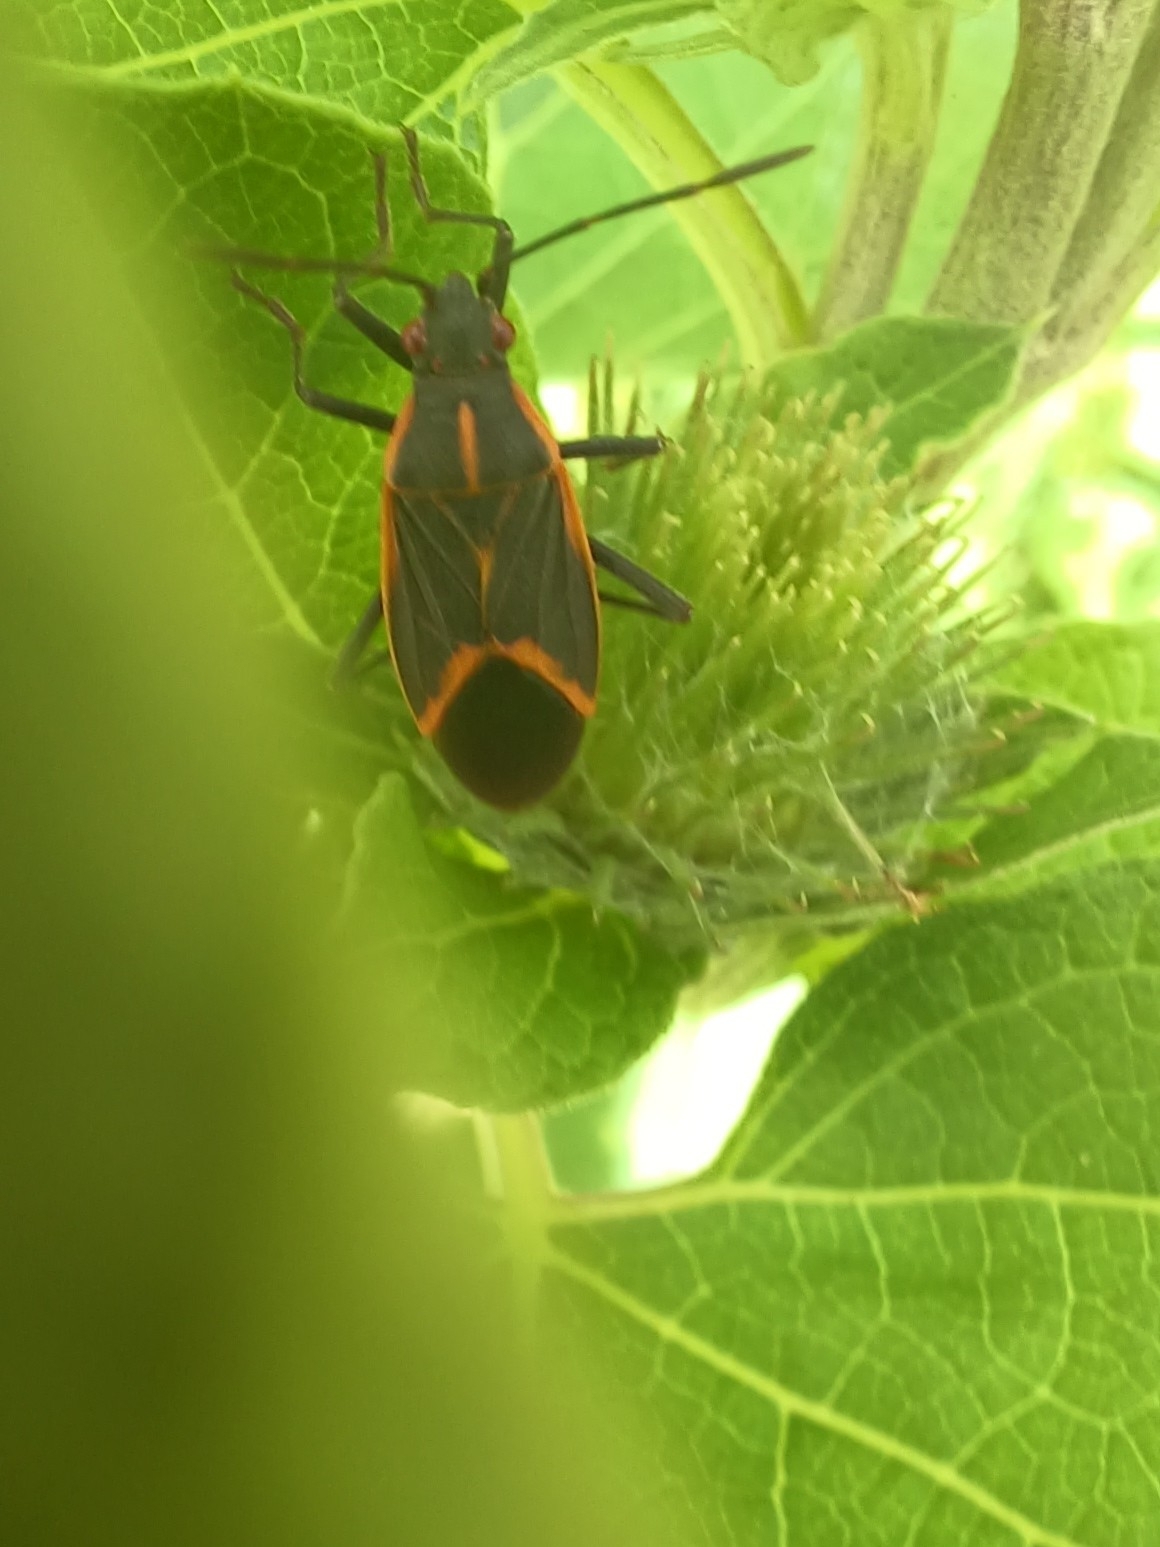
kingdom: Animalia
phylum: Arthropoda
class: Insecta
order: Hemiptera
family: Rhopalidae
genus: Boisea
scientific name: Boisea trivittata
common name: Boxelder bug
